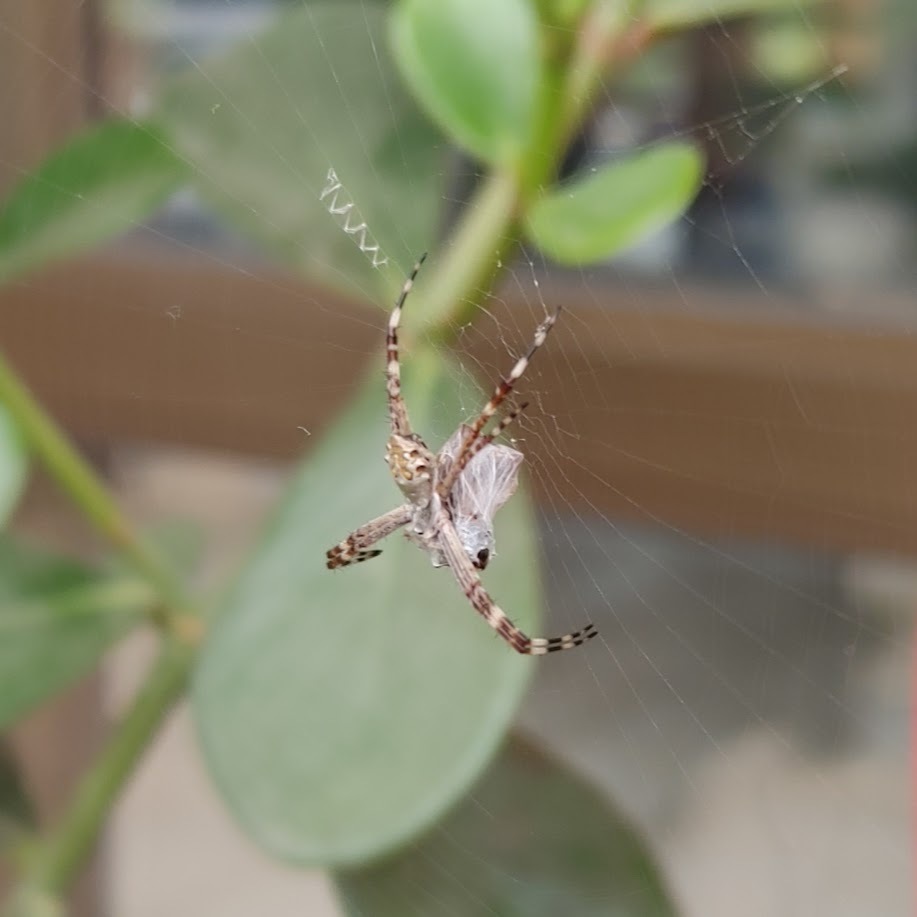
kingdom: Animalia
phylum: Arthropoda
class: Arachnida
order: Araneae
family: Araneidae
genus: Argiope
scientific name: Argiope argentata
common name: Orb weavers
